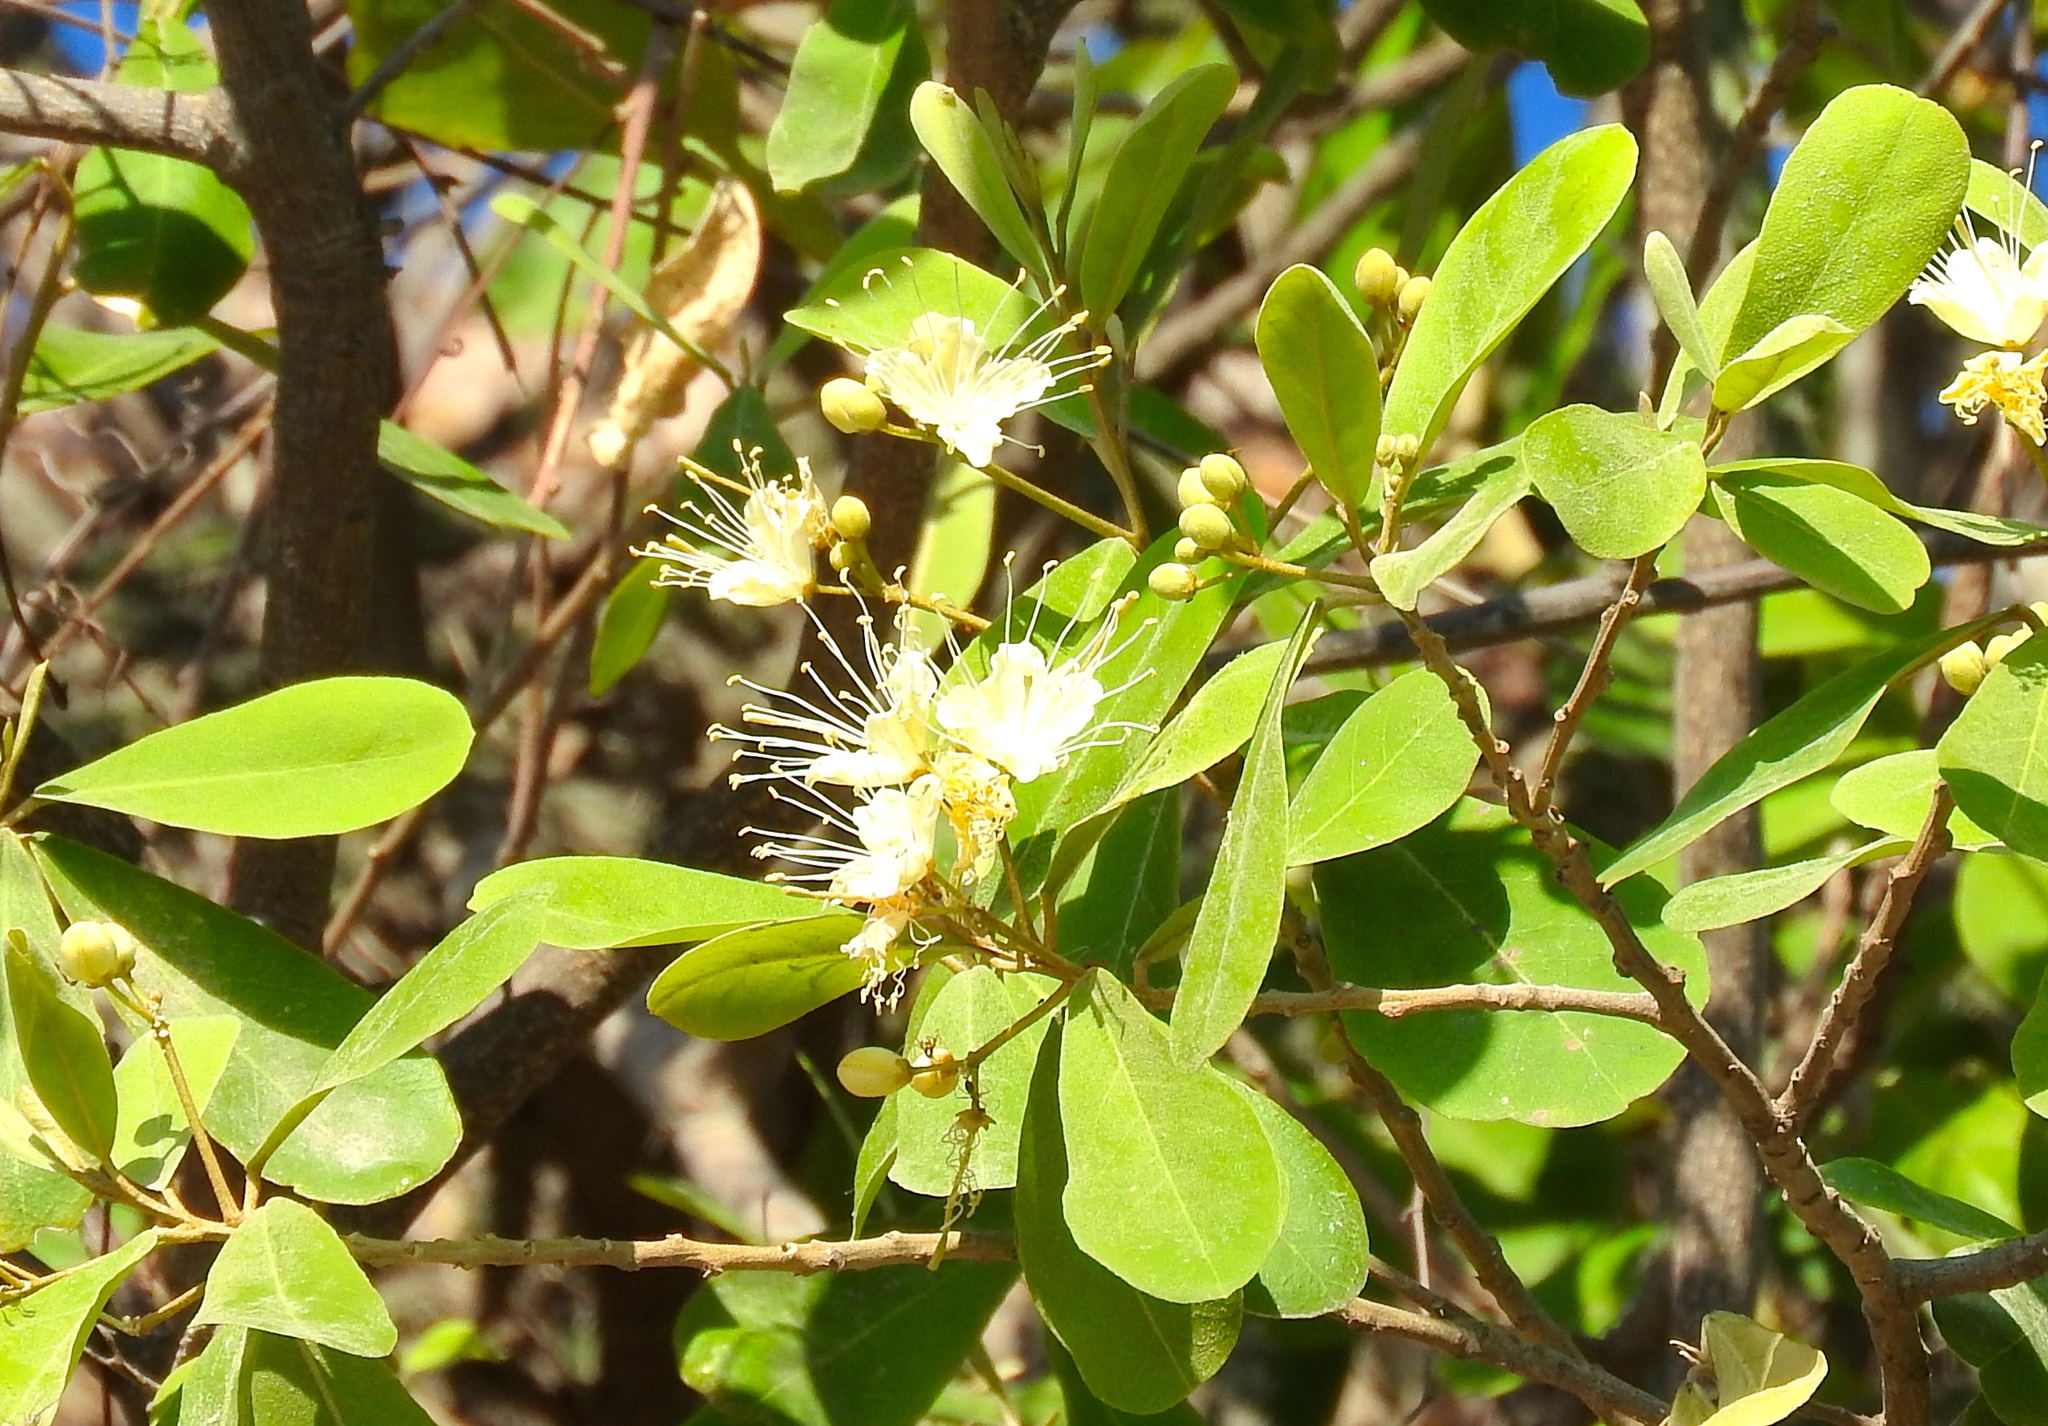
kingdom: Plantae
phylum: Tracheophyta
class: Magnoliopsida
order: Brassicales
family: Capparaceae
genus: Quadrella
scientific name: Quadrella indica
